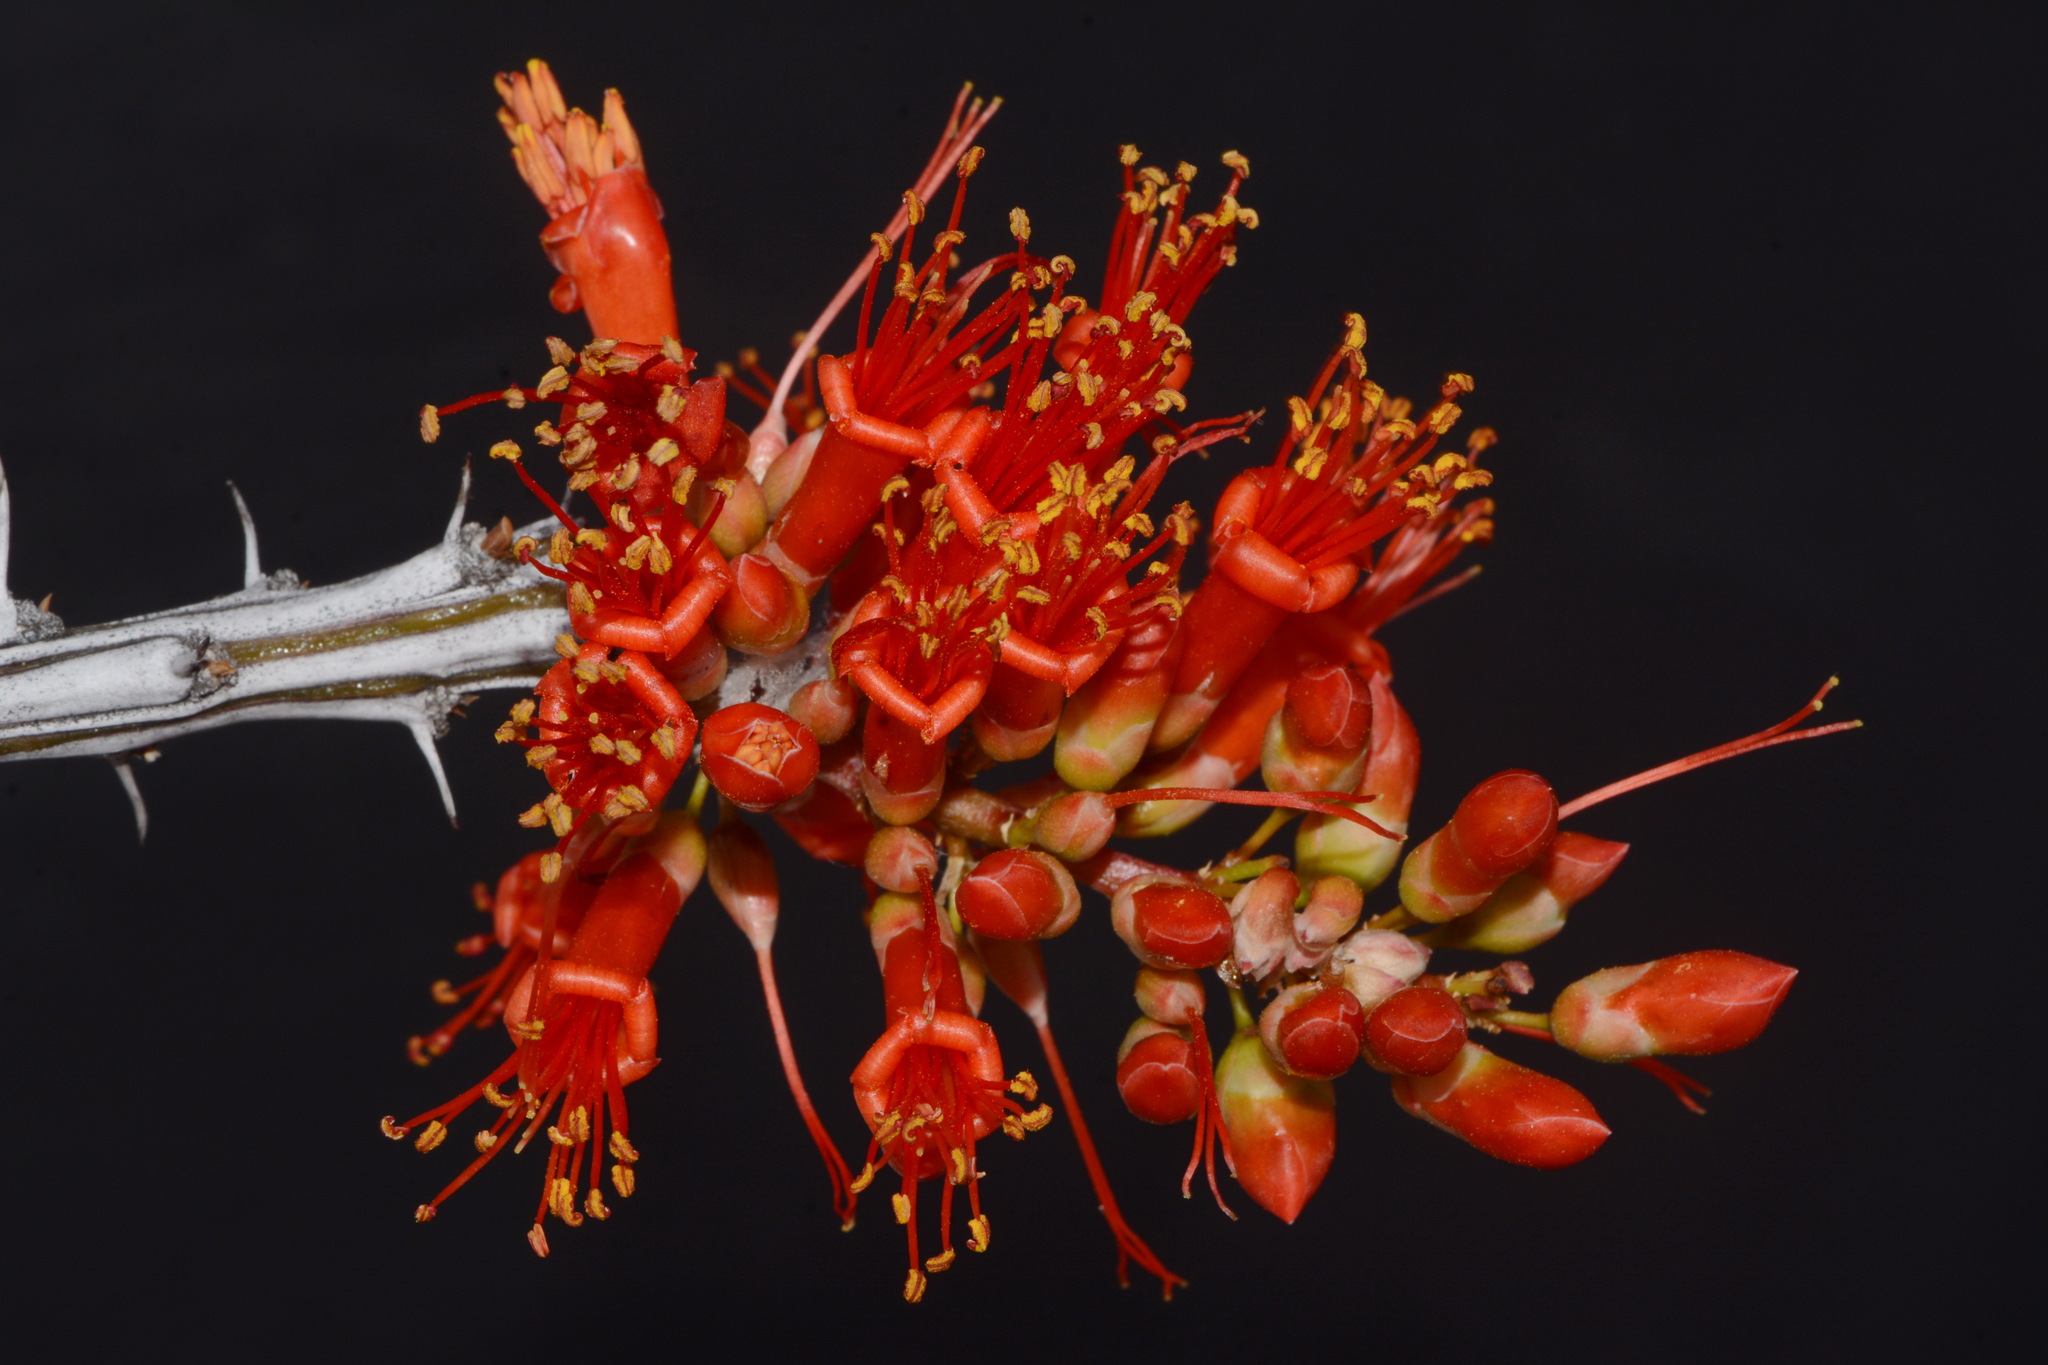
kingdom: Plantae
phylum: Tracheophyta
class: Magnoliopsida
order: Ericales
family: Fouquieriaceae
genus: Fouquieria
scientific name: Fouquieria splendens
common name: Vine-cactus
